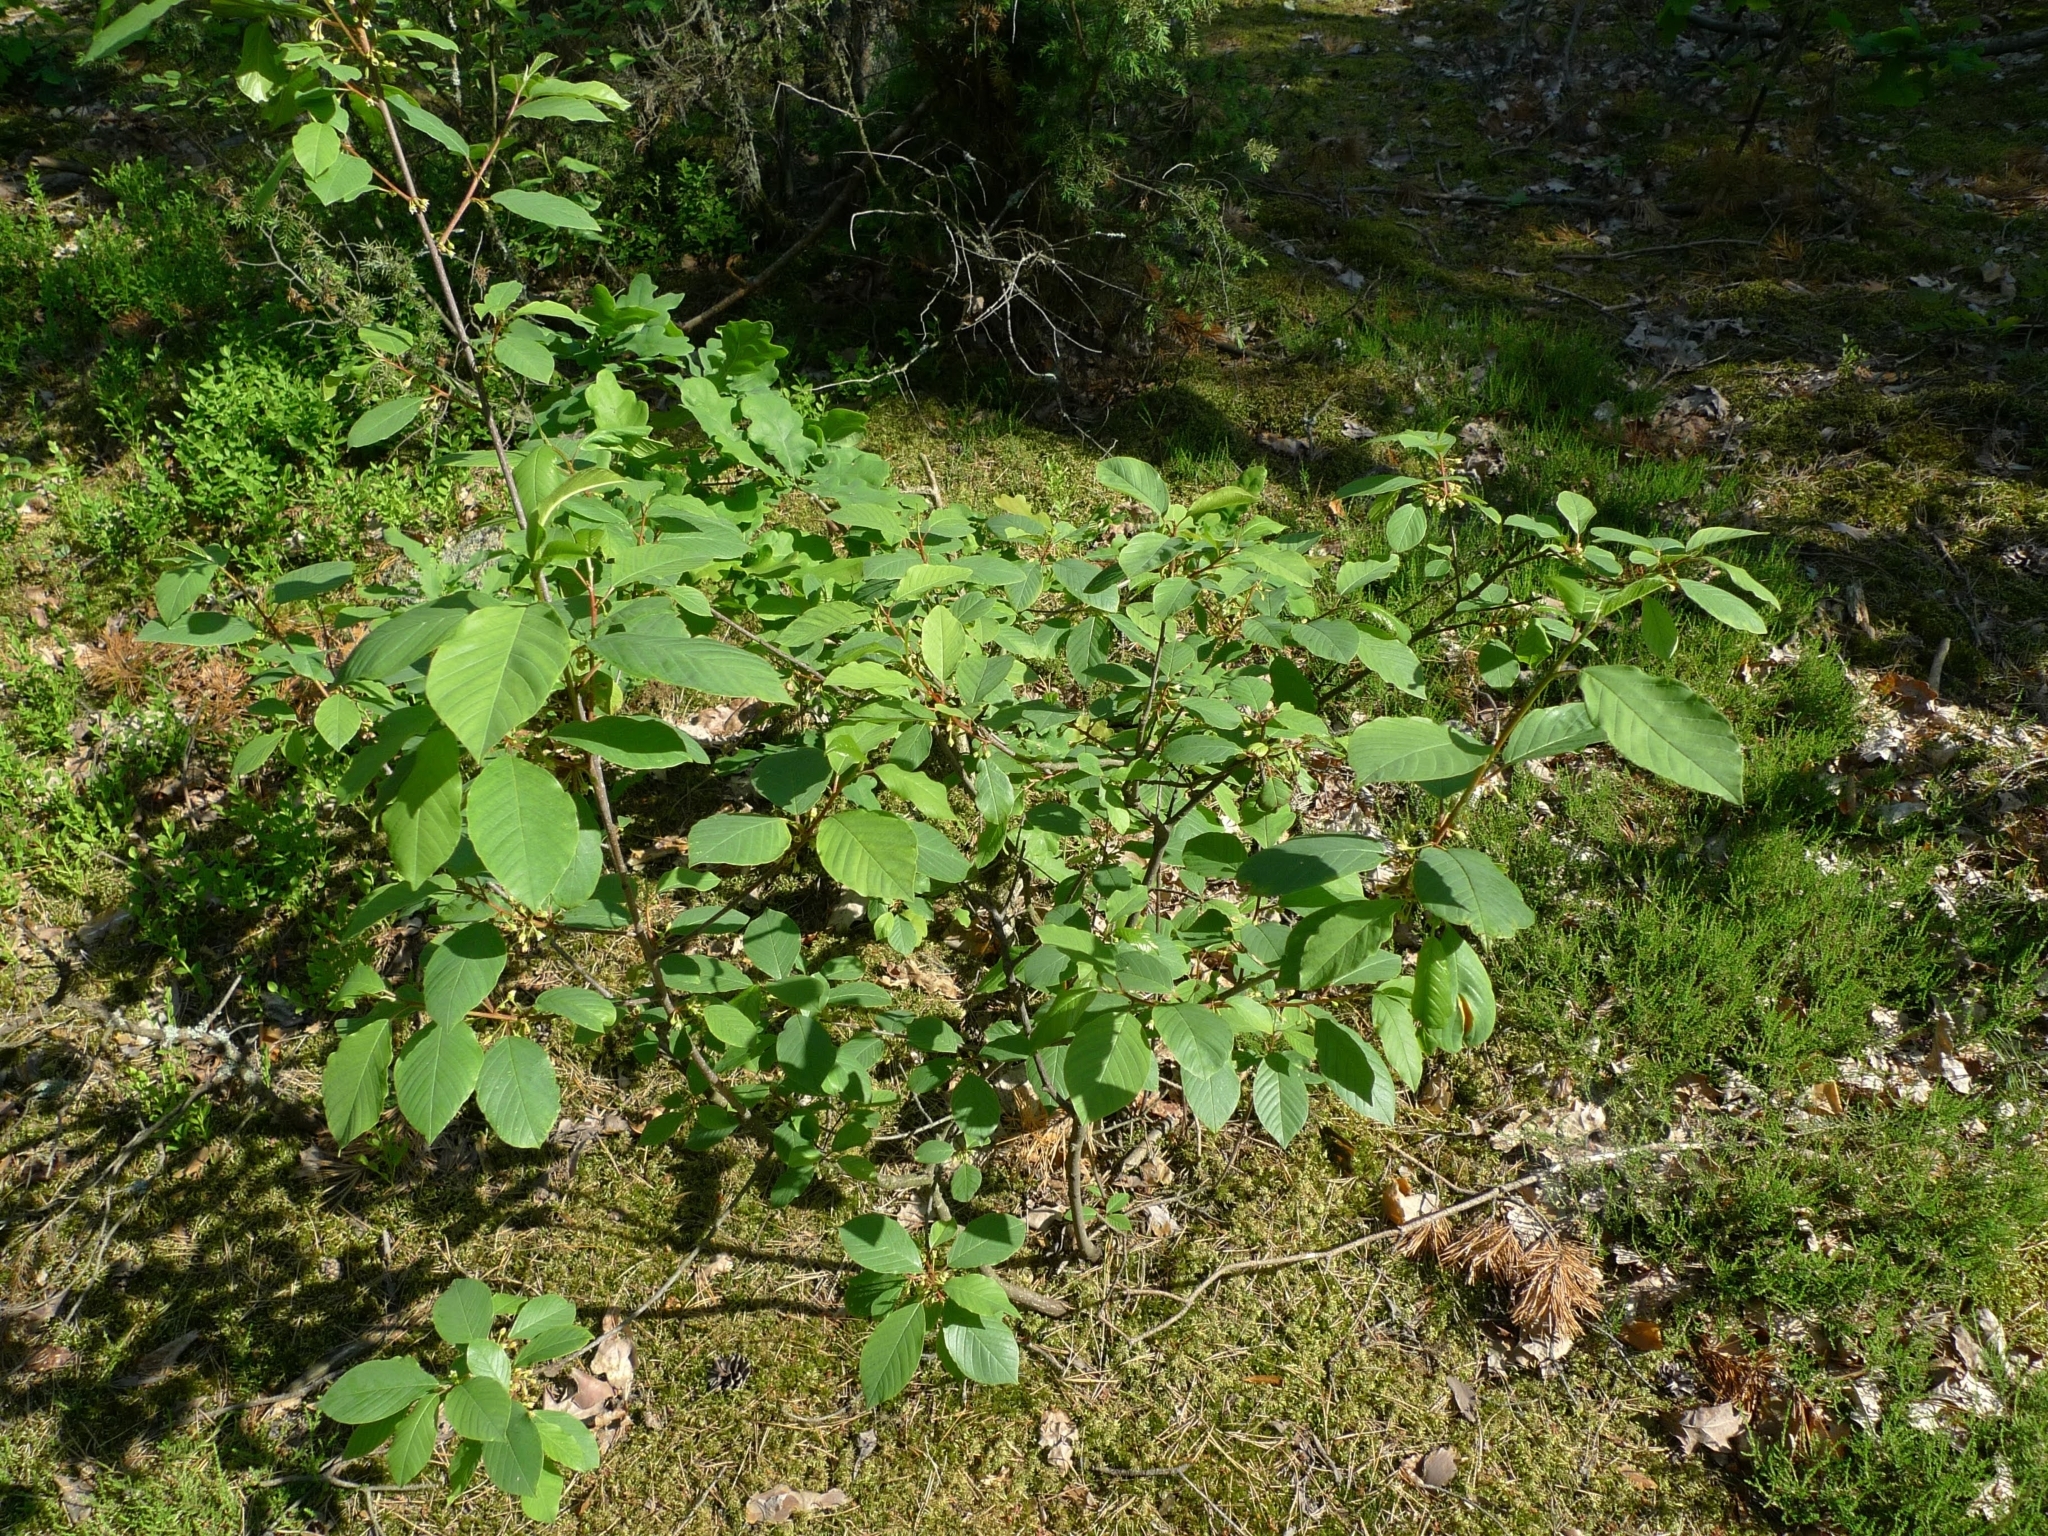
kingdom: Plantae
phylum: Tracheophyta
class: Magnoliopsida
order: Rosales
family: Rhamnaceae
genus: Frangula
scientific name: Frangula alnus
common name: Alder buckthorn
